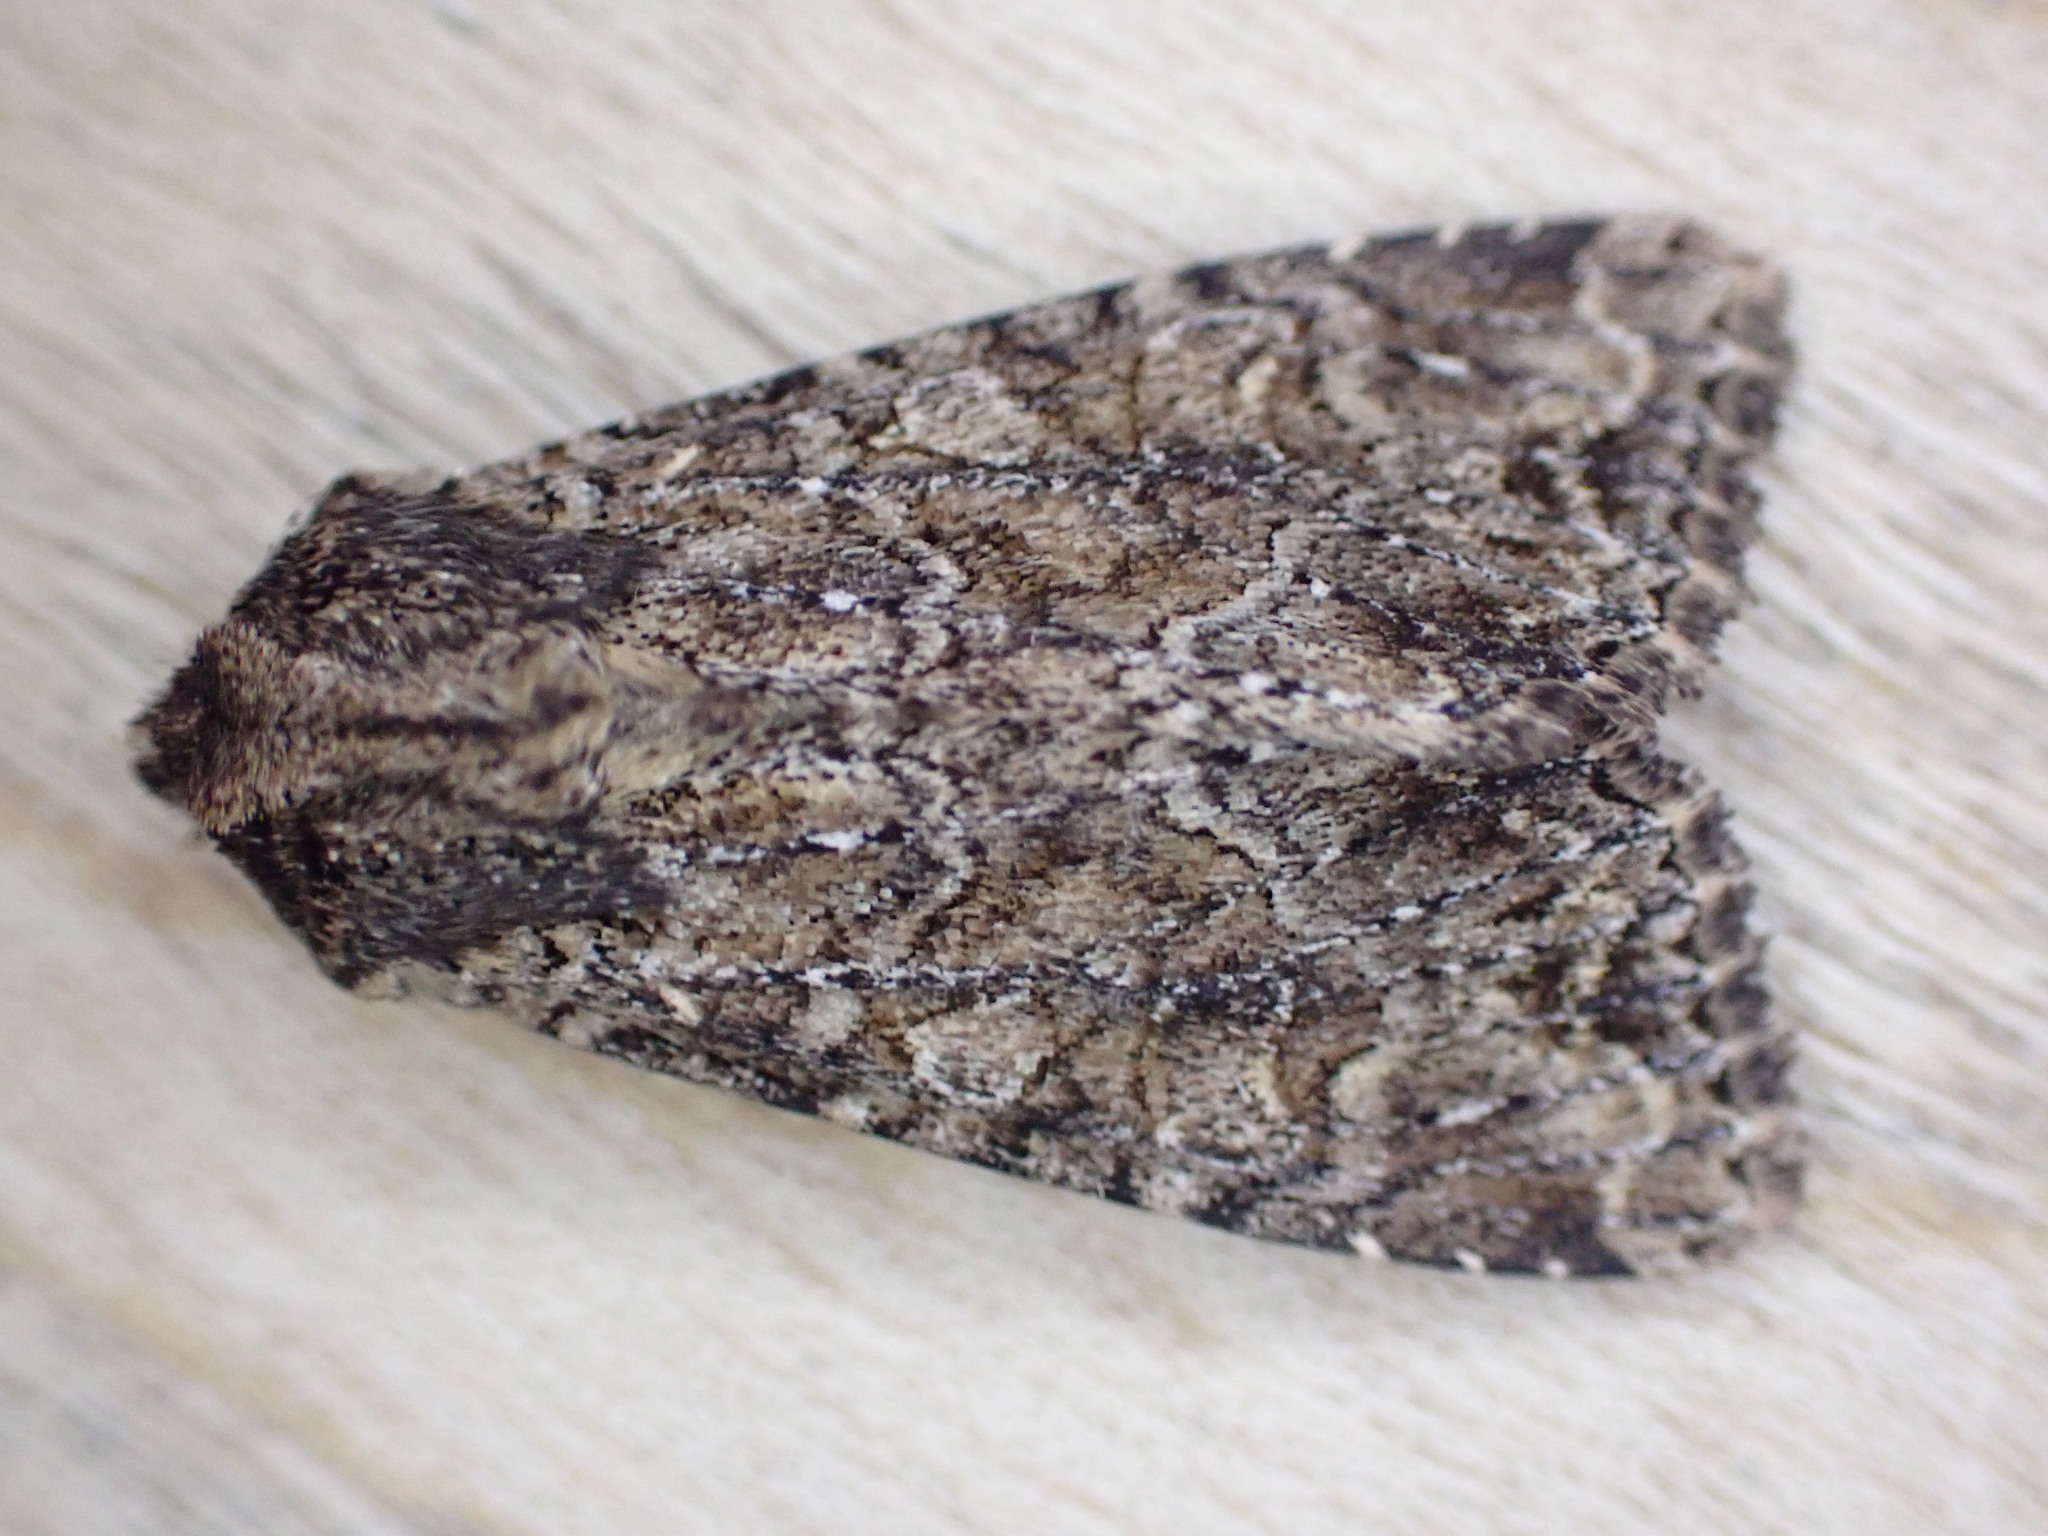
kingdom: Animalia
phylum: Arthropoda
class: Insecta
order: Lepidoptera
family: Noctuidae
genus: Apamea
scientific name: Apamea remissa
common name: Dusky brocade
